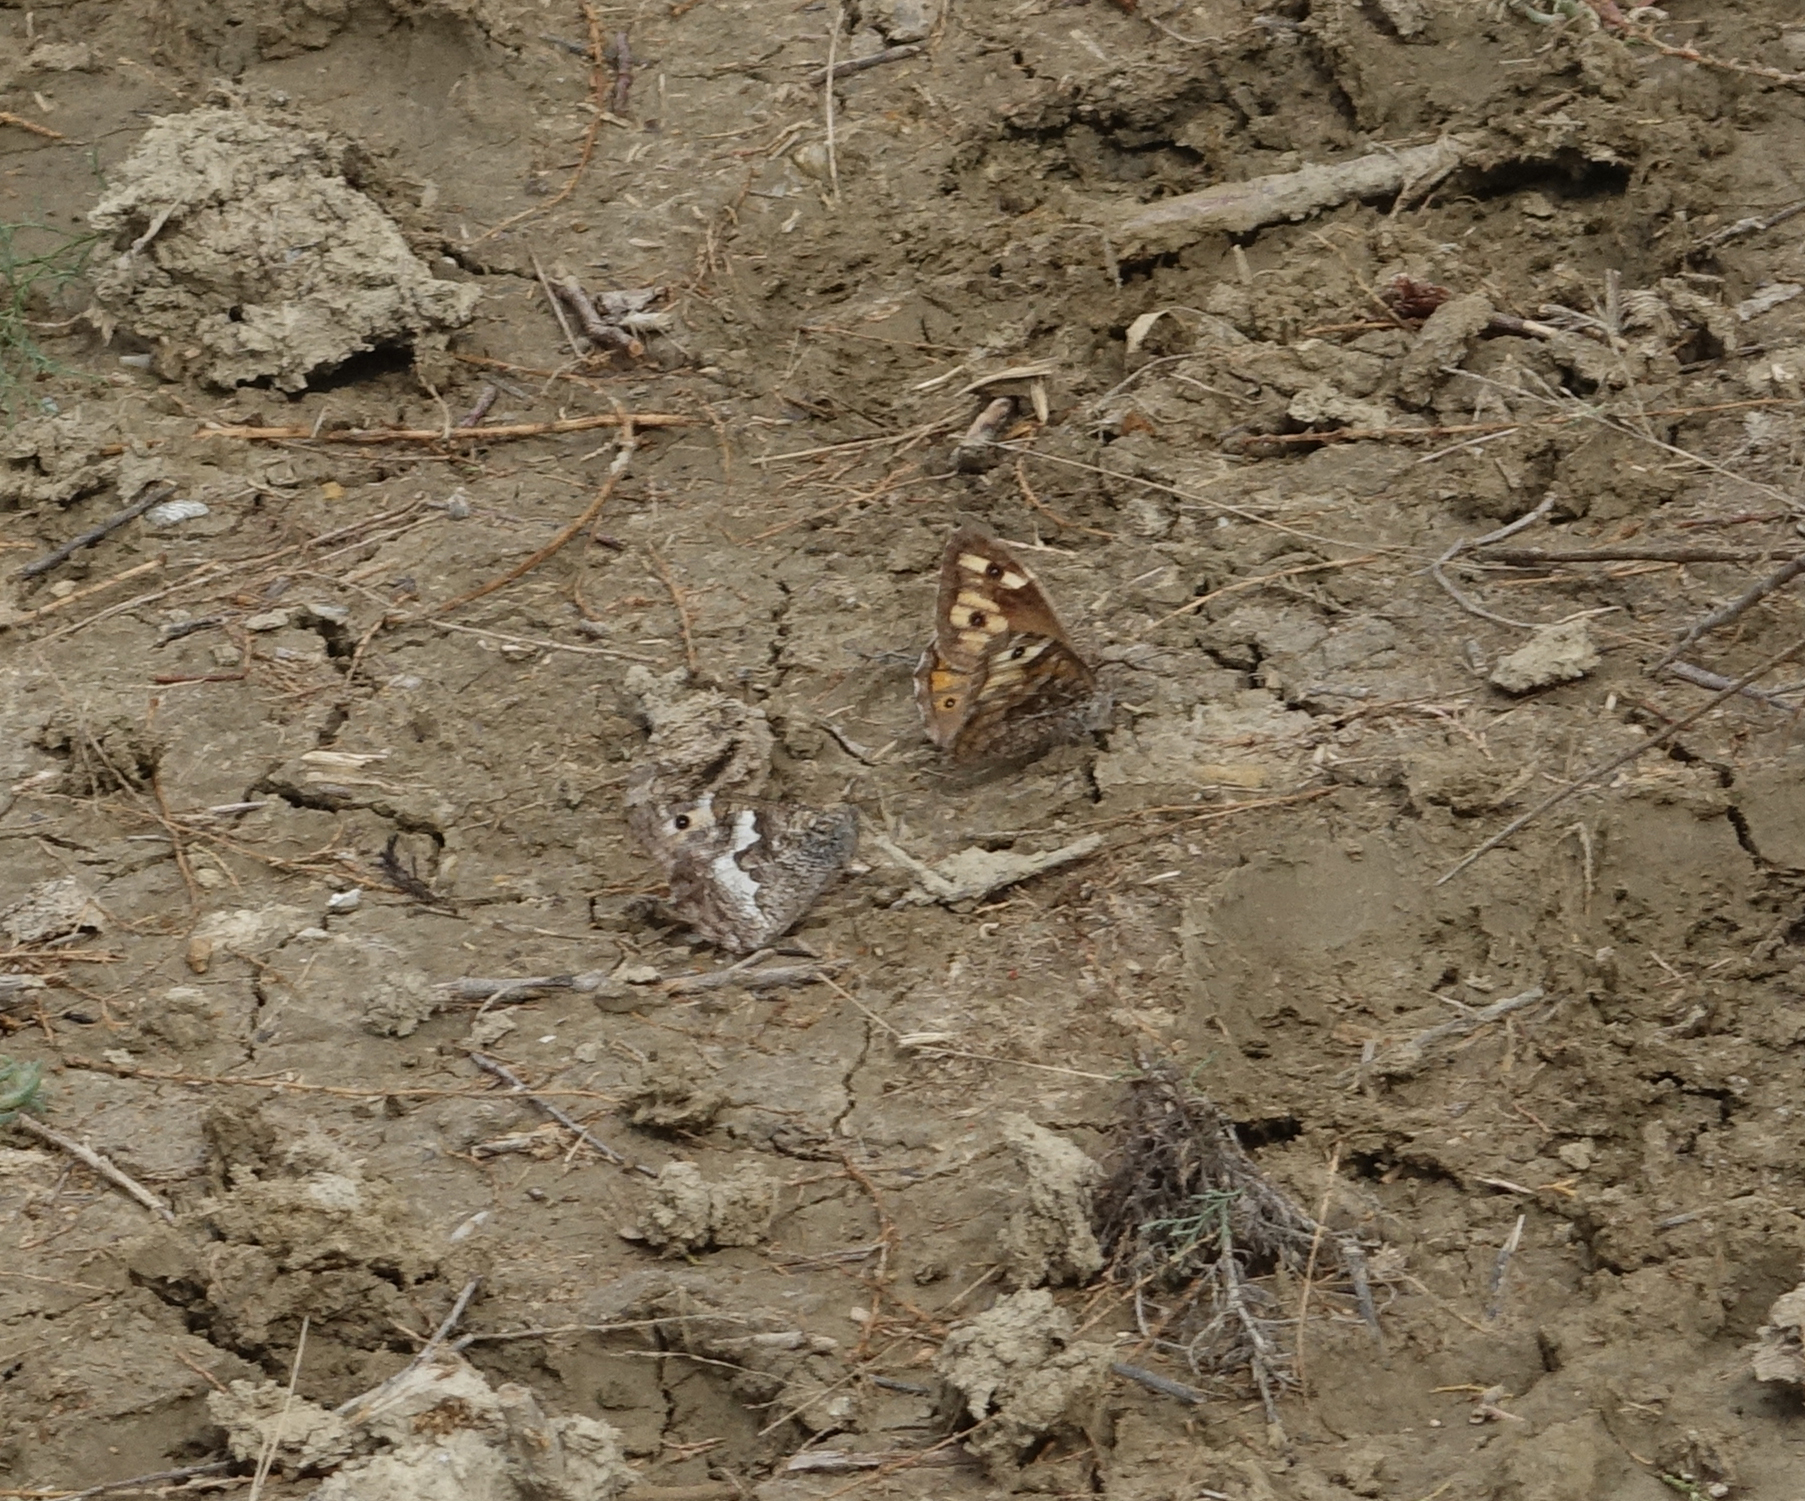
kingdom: Animalia
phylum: Arthropoda
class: Insecta
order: Lepidoptera
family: Nymphalidae
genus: Hipparchia
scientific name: Hipparchia pellucida
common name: Lesbos grayling
